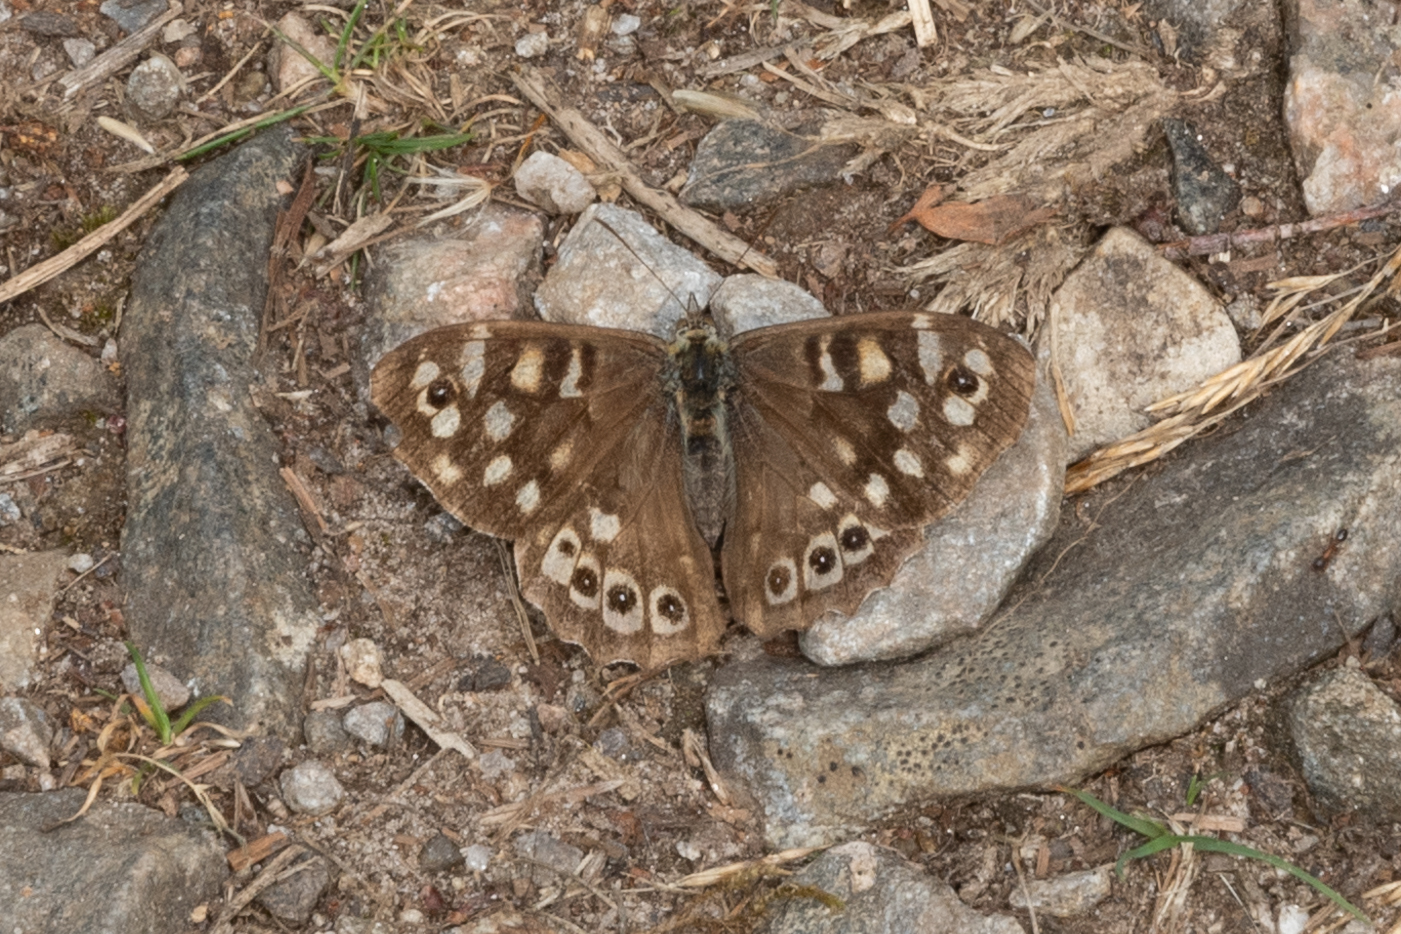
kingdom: Animalia
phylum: Arthropoda
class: Insecta
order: Lepidoptera
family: Nymphalidae
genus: Pararge
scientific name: Pararge aegeria
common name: Speckled wood
